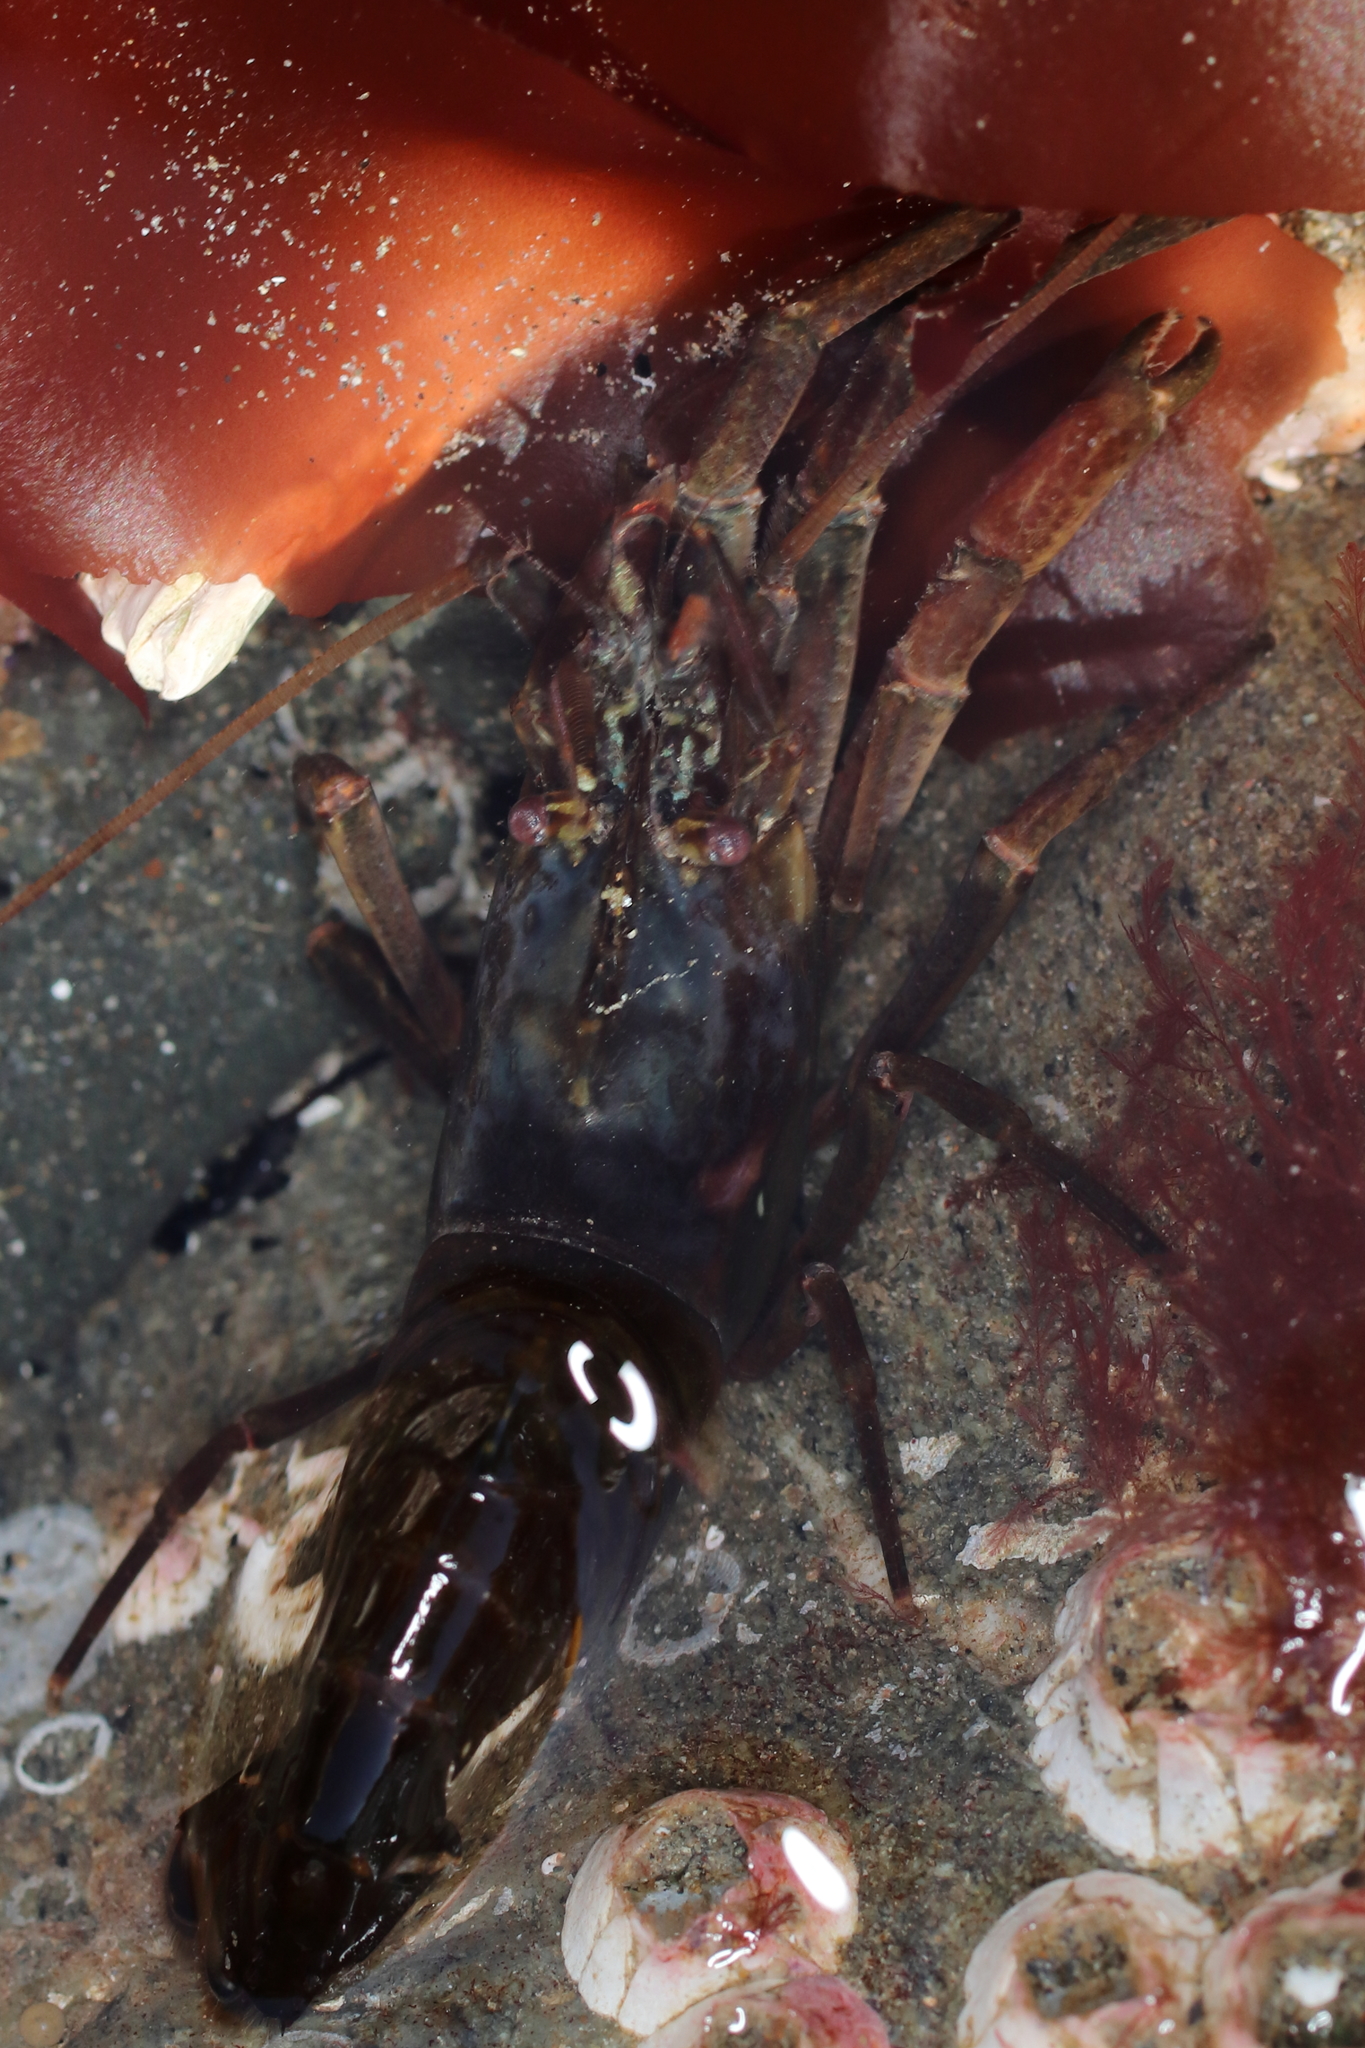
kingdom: Animalia
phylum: Arthropoda
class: Malacostraca
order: Decapoda
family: Thoridae
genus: Heptacarpus
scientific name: Heptacarpus brevirostris
